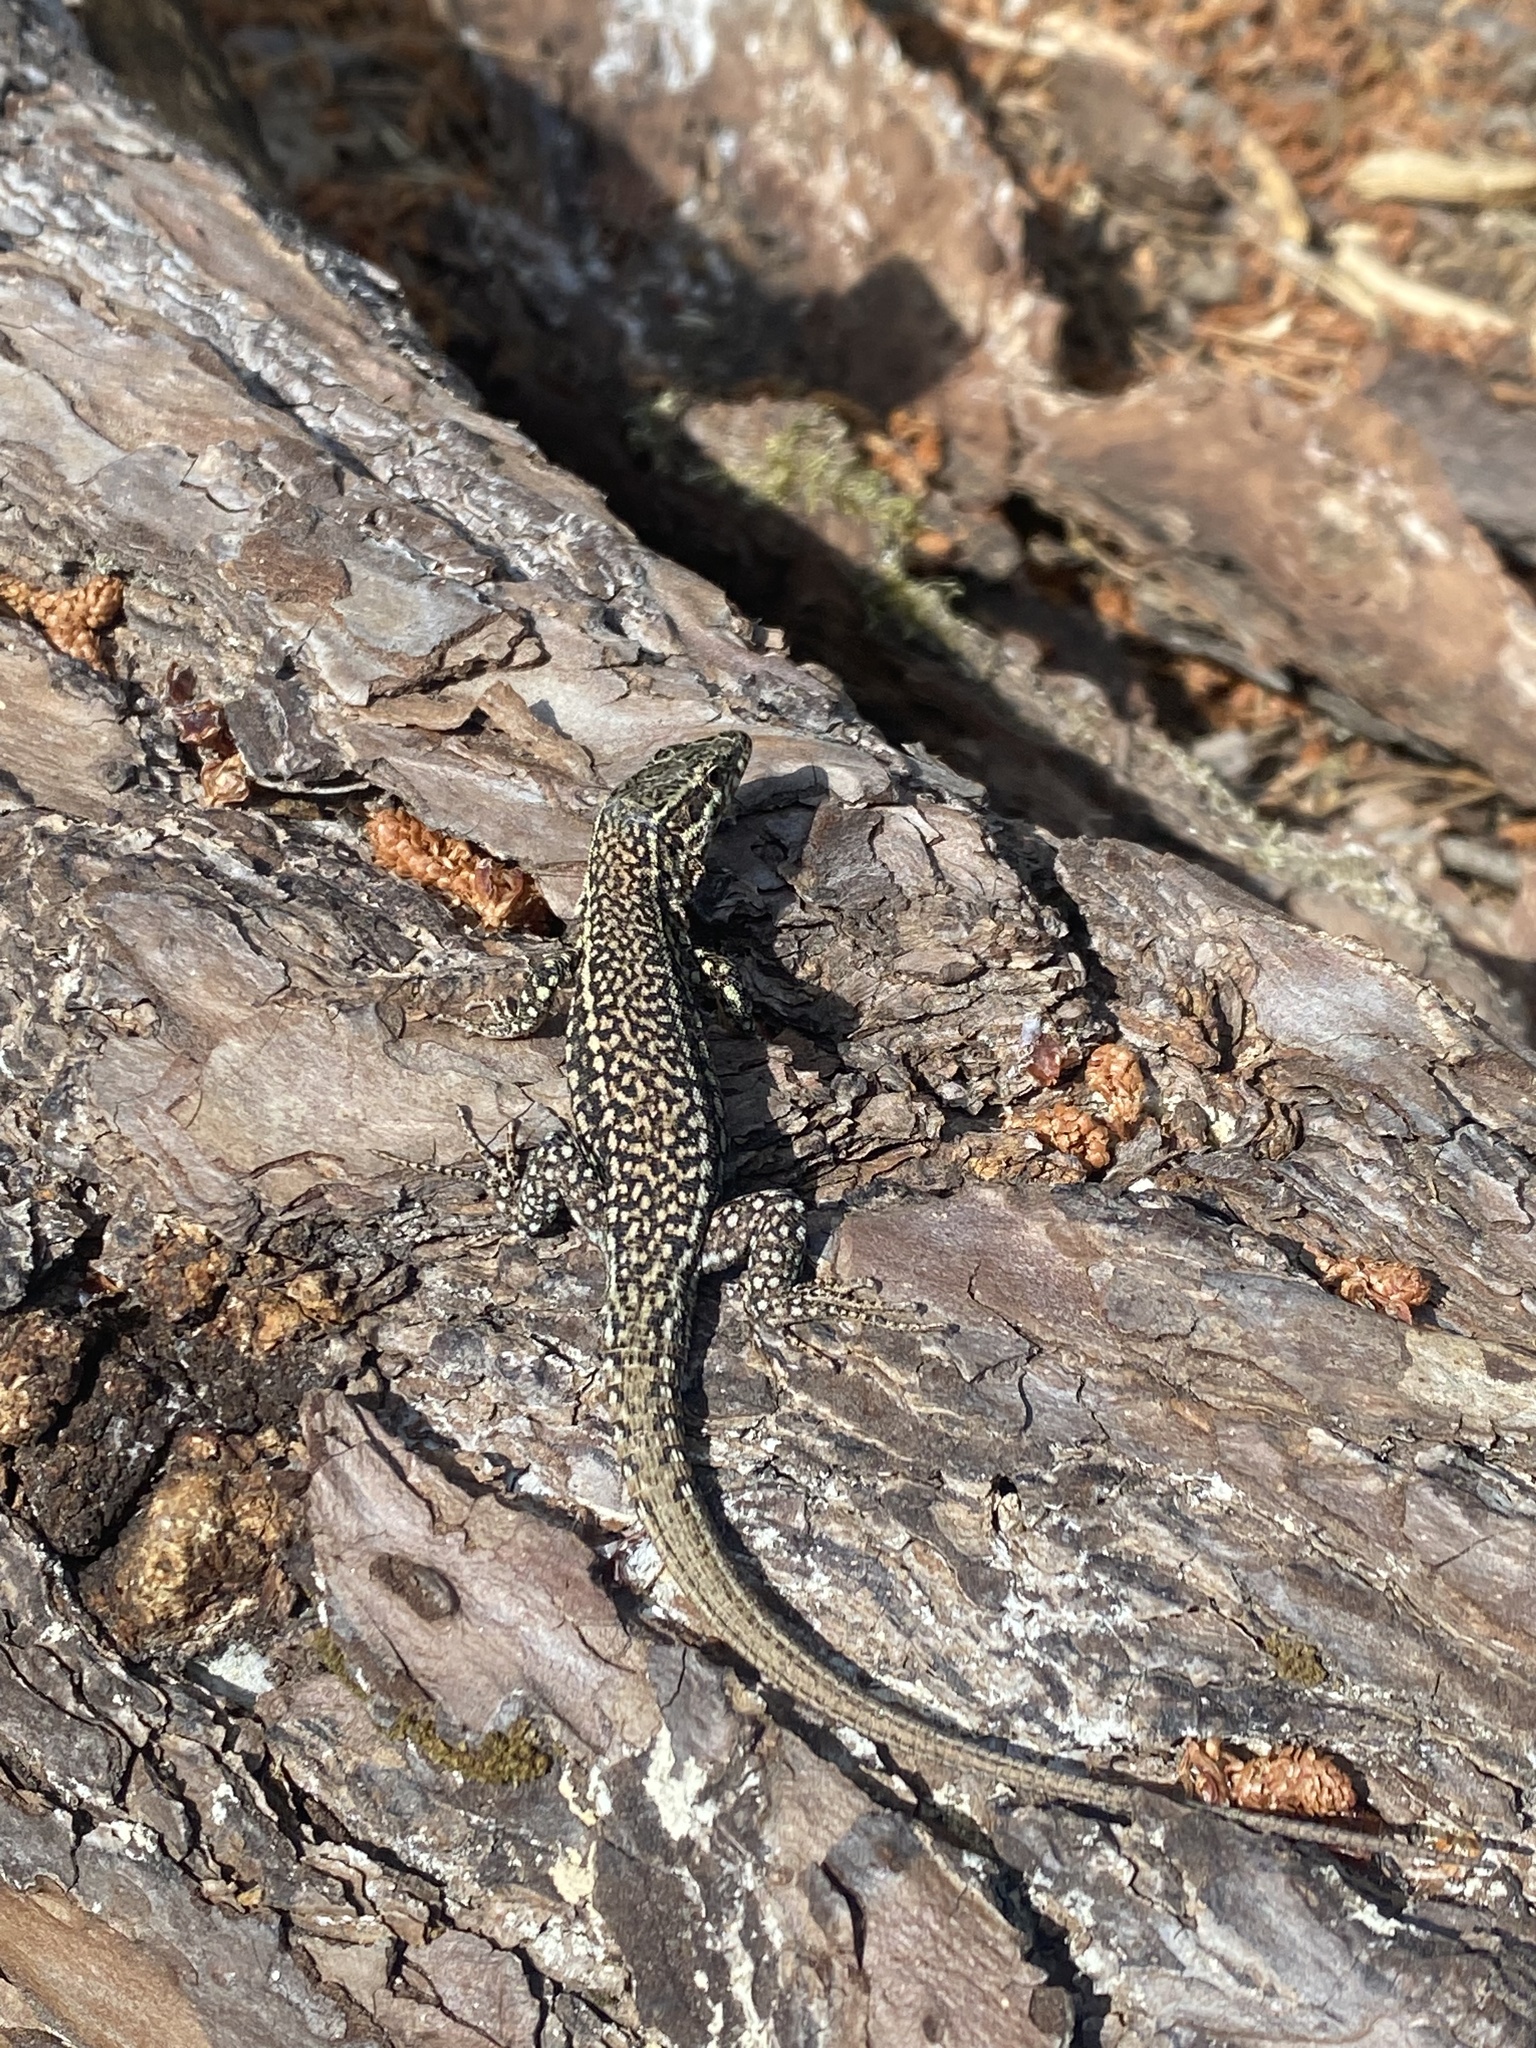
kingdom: Animalia
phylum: Chordata
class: Squamata
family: Lacertidae
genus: Podarcis
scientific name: Podarcis muralis
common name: Common wall lizard
